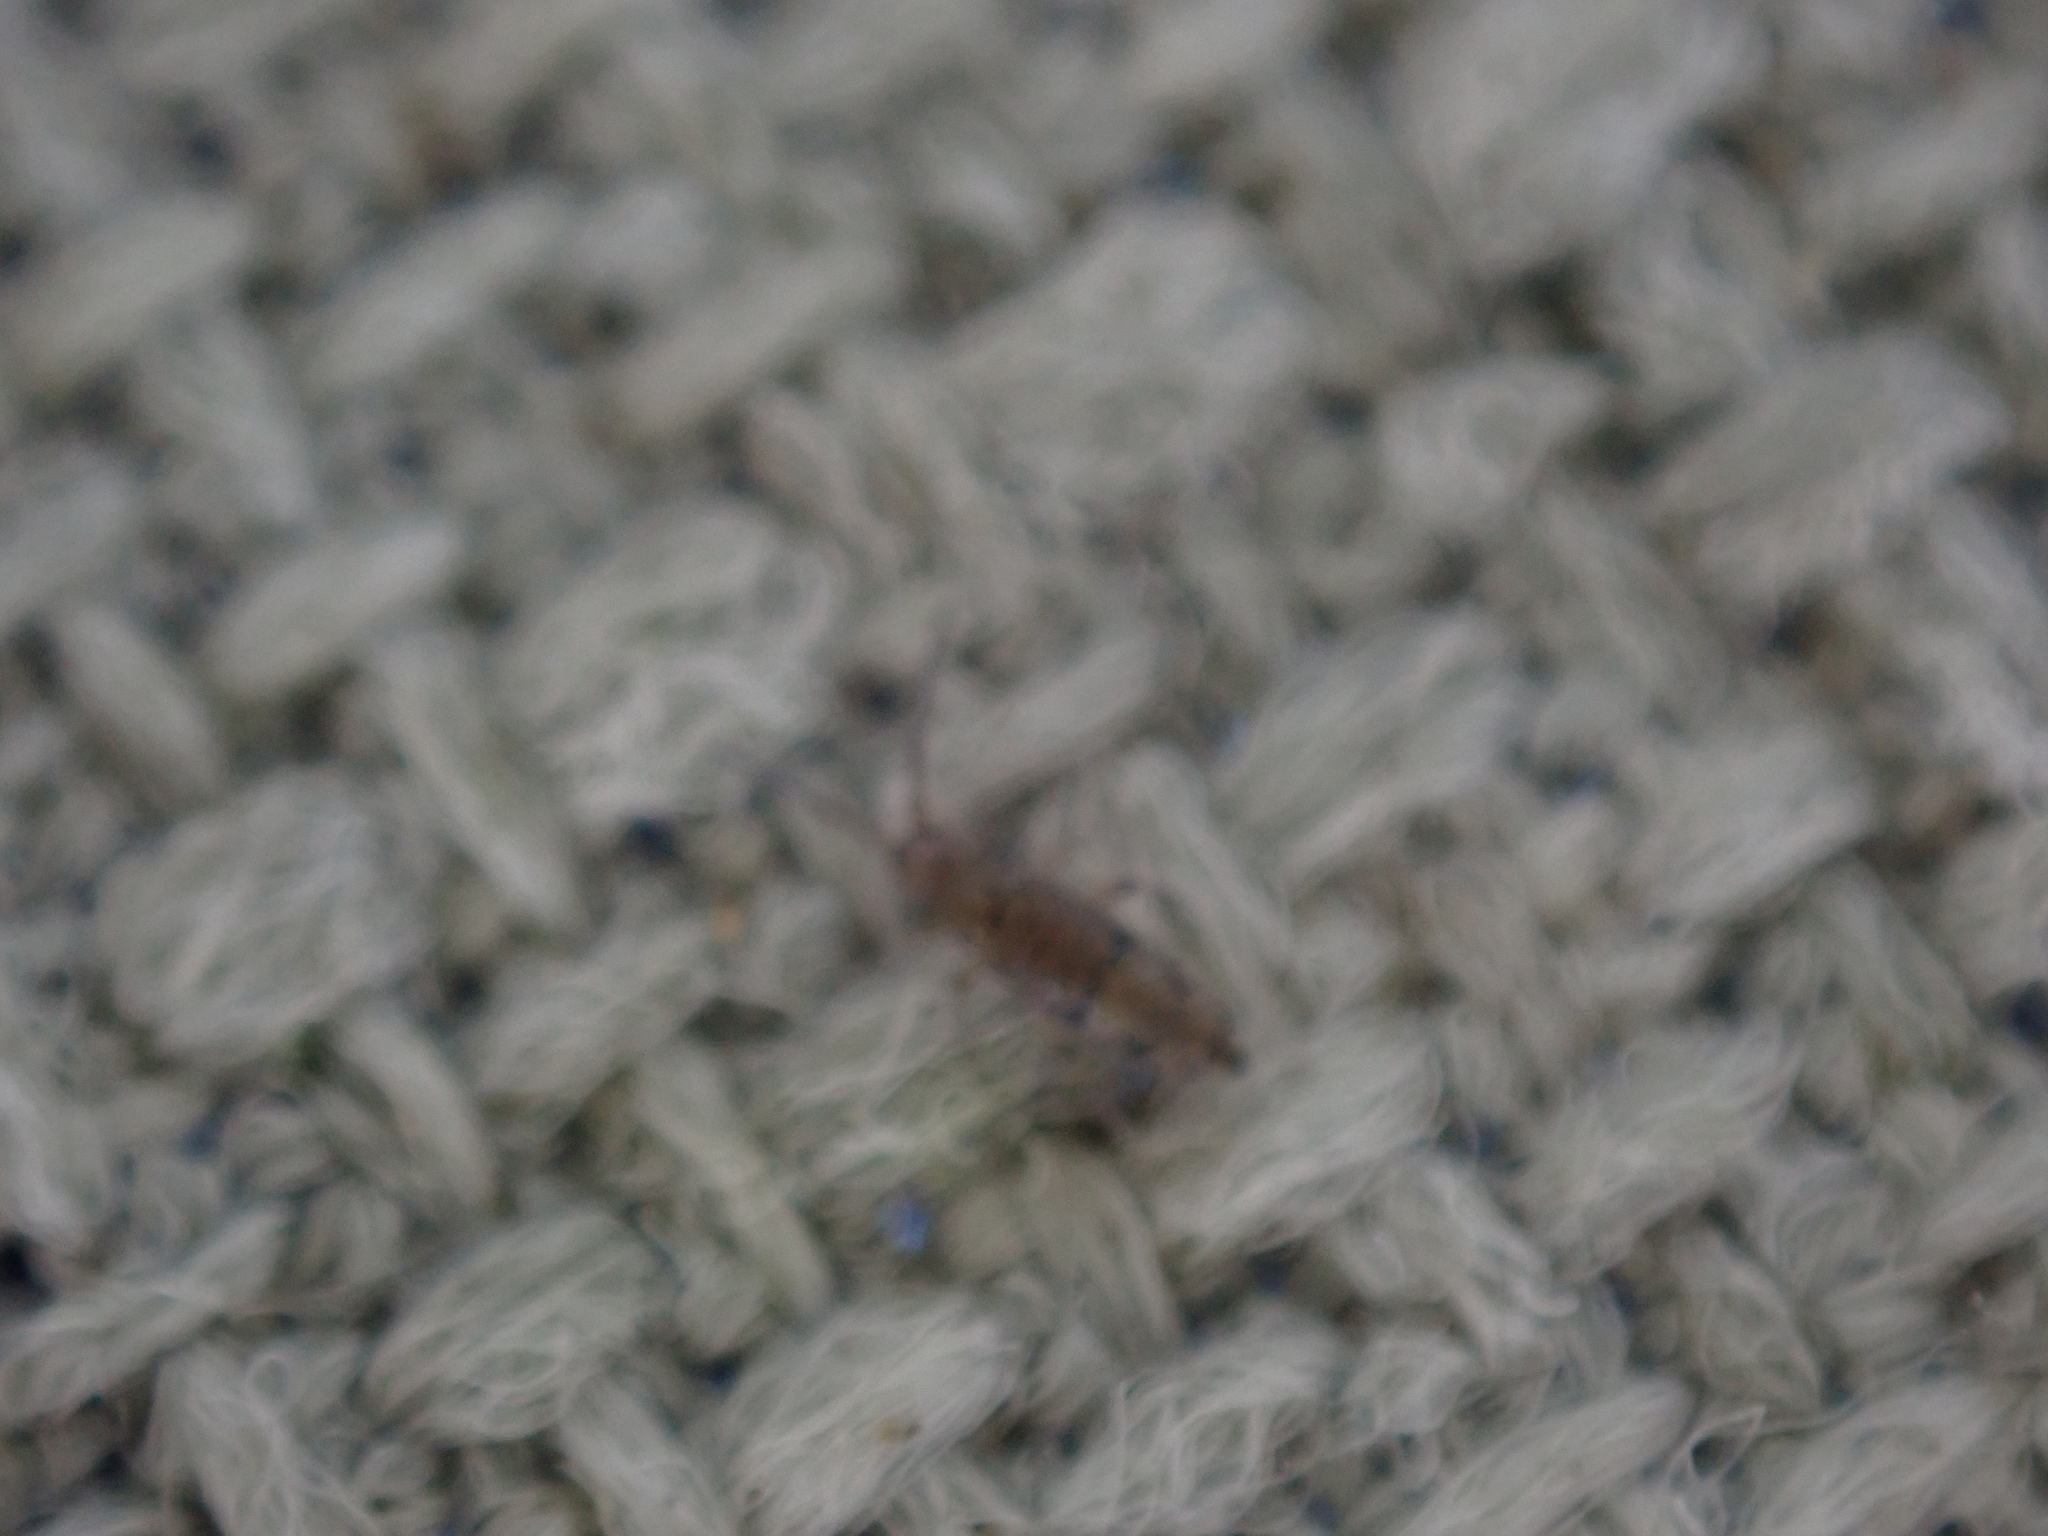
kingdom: Animalia
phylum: Arthropoda
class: Collembola
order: Entomobryomorpha
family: Entomobryidae
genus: Willowsia
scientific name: Willowsia nigromaculata
